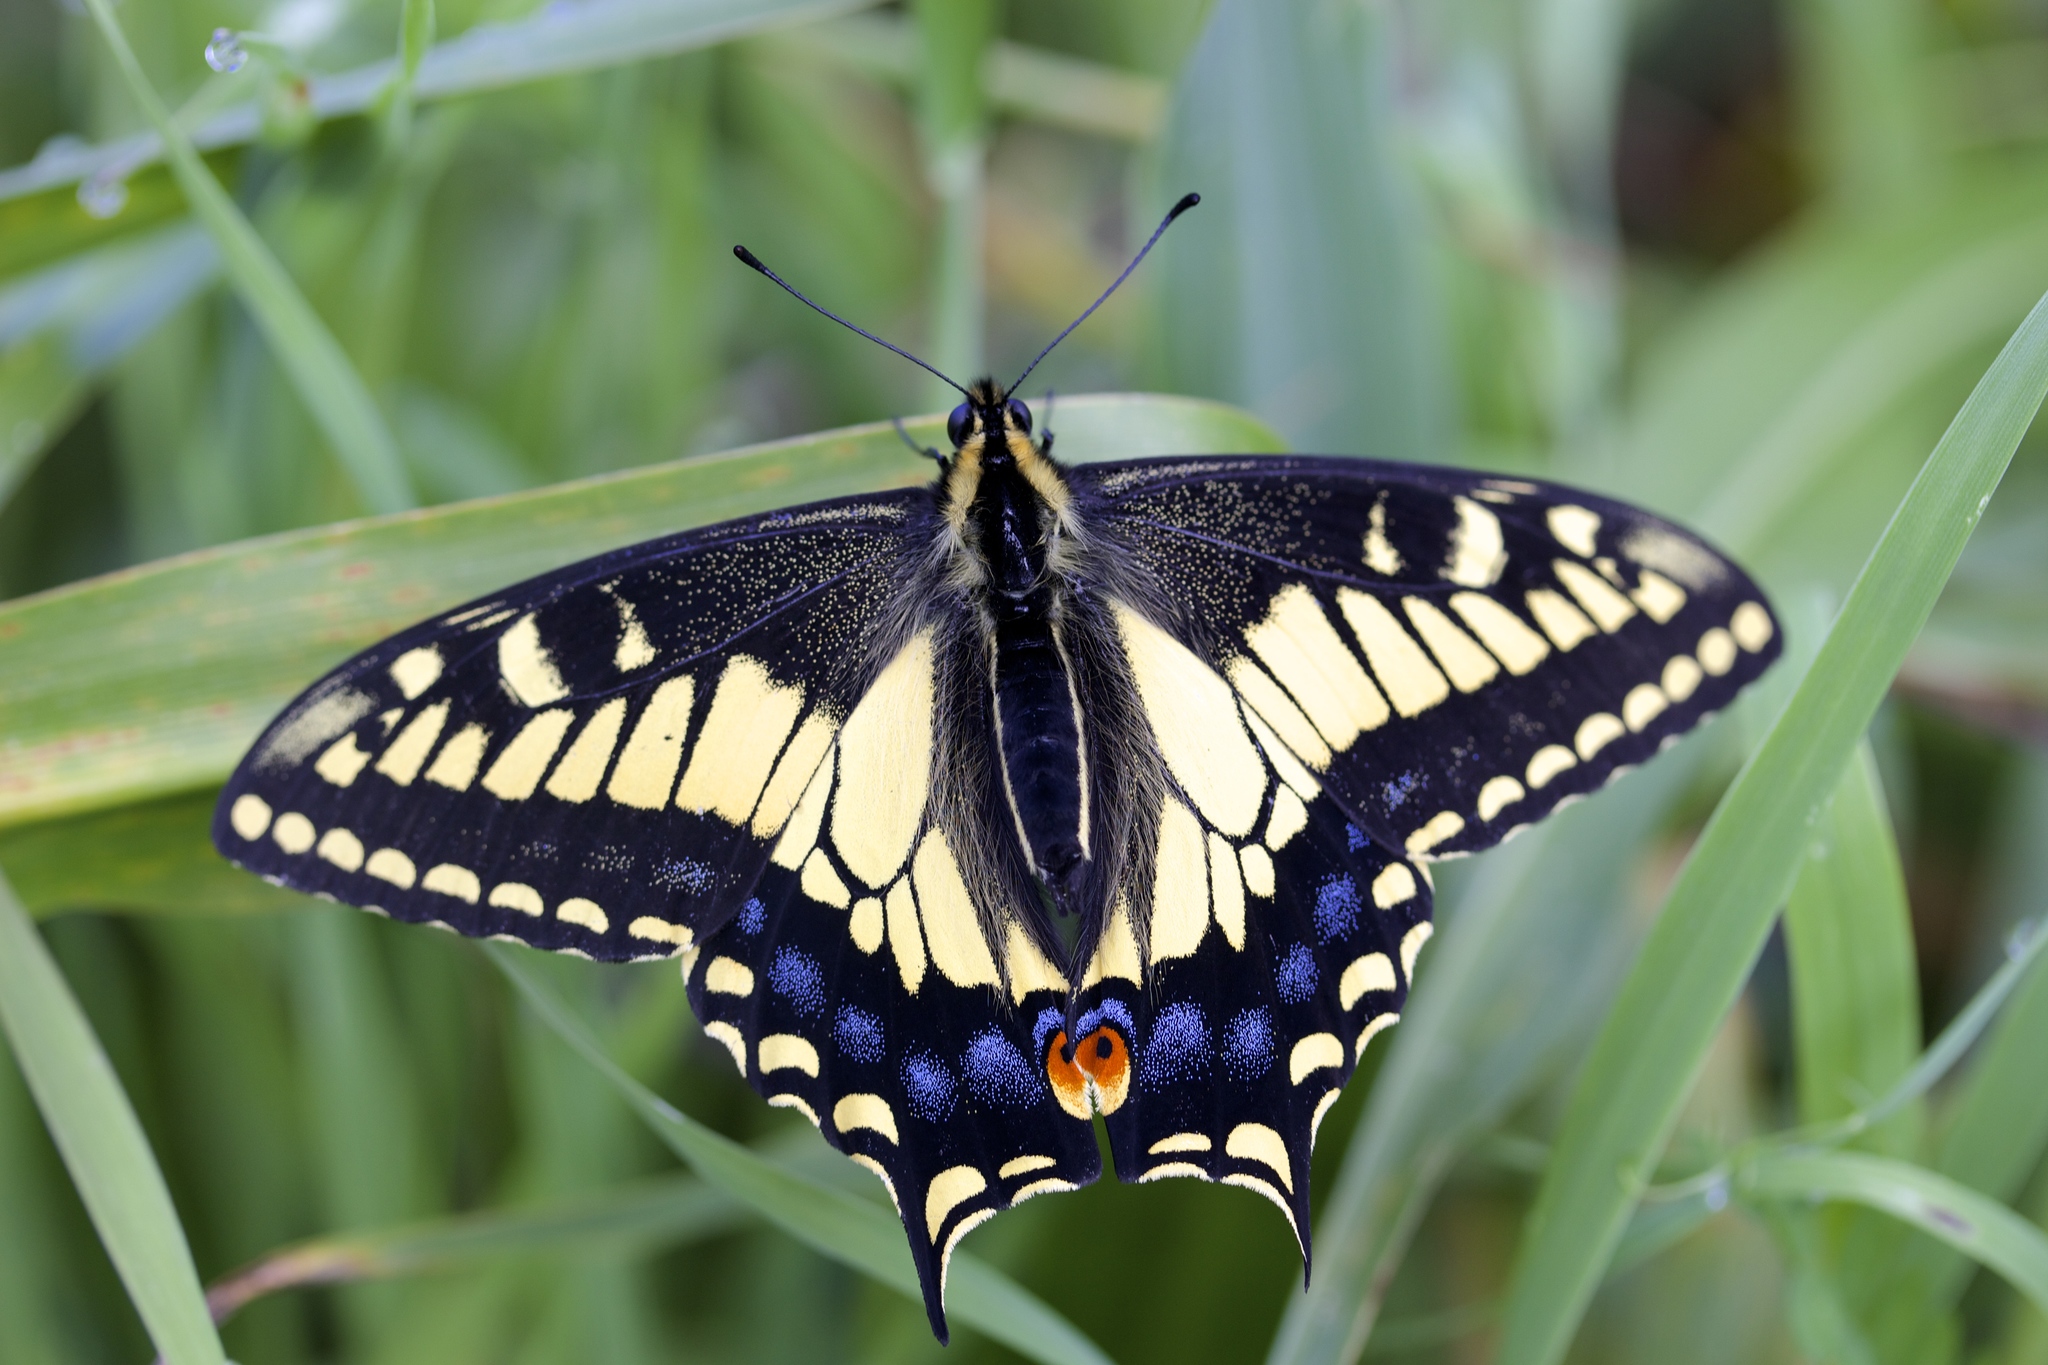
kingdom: Animalia
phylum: Arthropoda
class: Insecta
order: Lepidoptera
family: Papilionidae
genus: Papilio
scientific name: Papilio zelicaon
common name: Anise swallowtail
